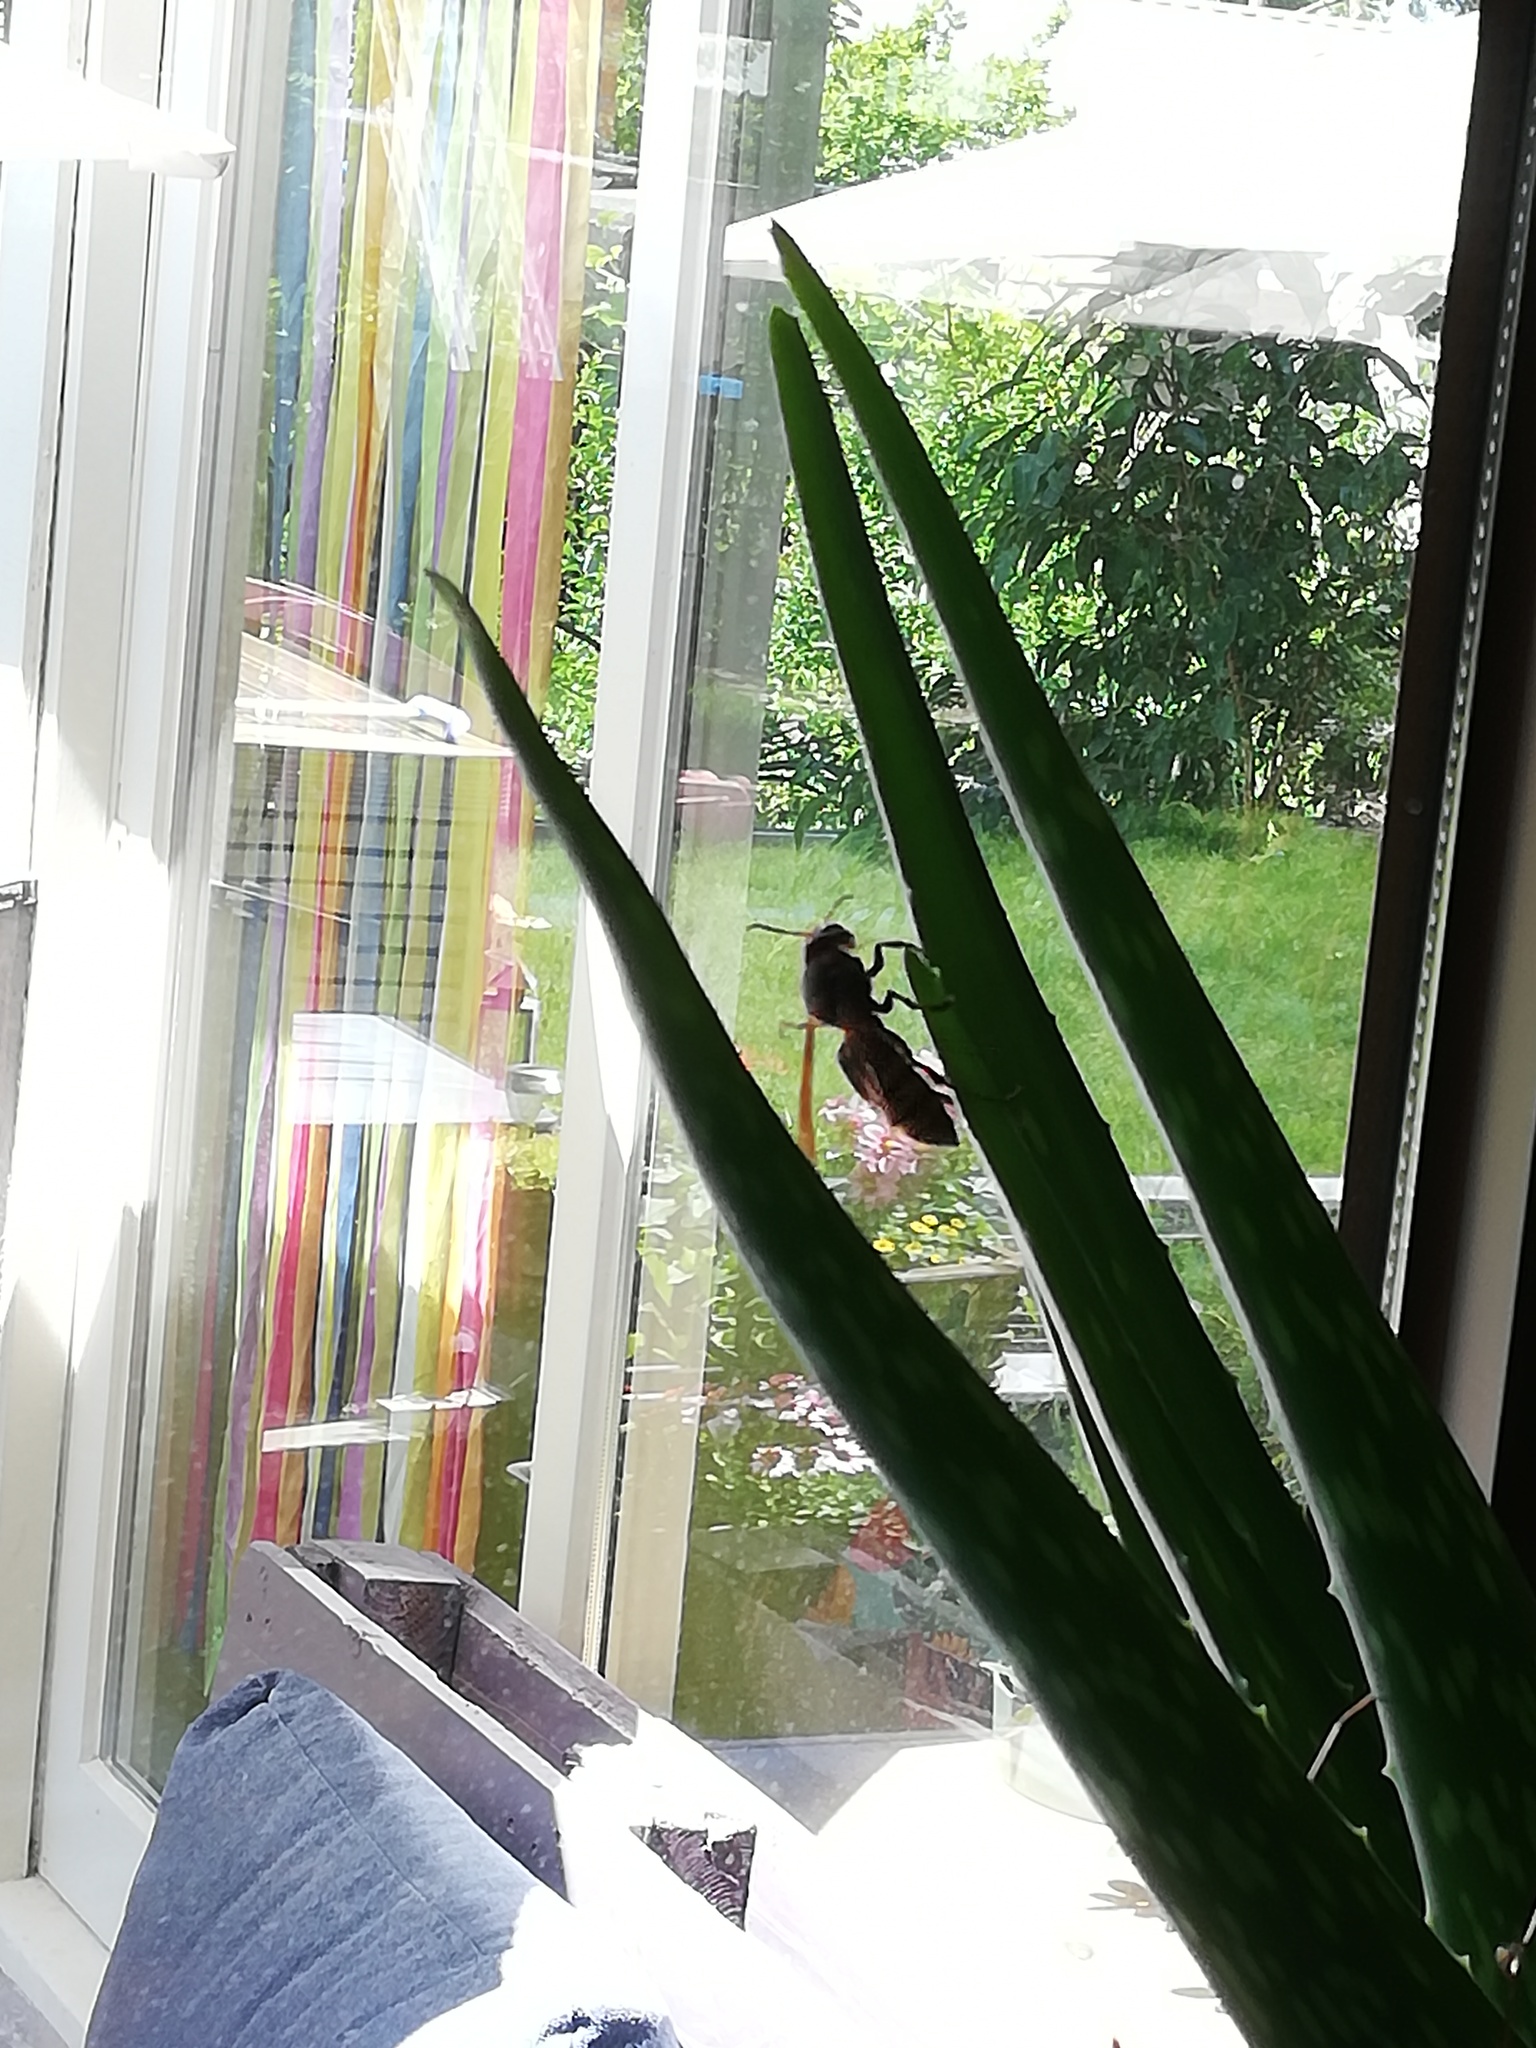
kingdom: Animalia
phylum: Arthropoda
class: Insecta
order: Hymenoptera
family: Vespidae
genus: Vespa
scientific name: Vespa crabro
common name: Hornet
